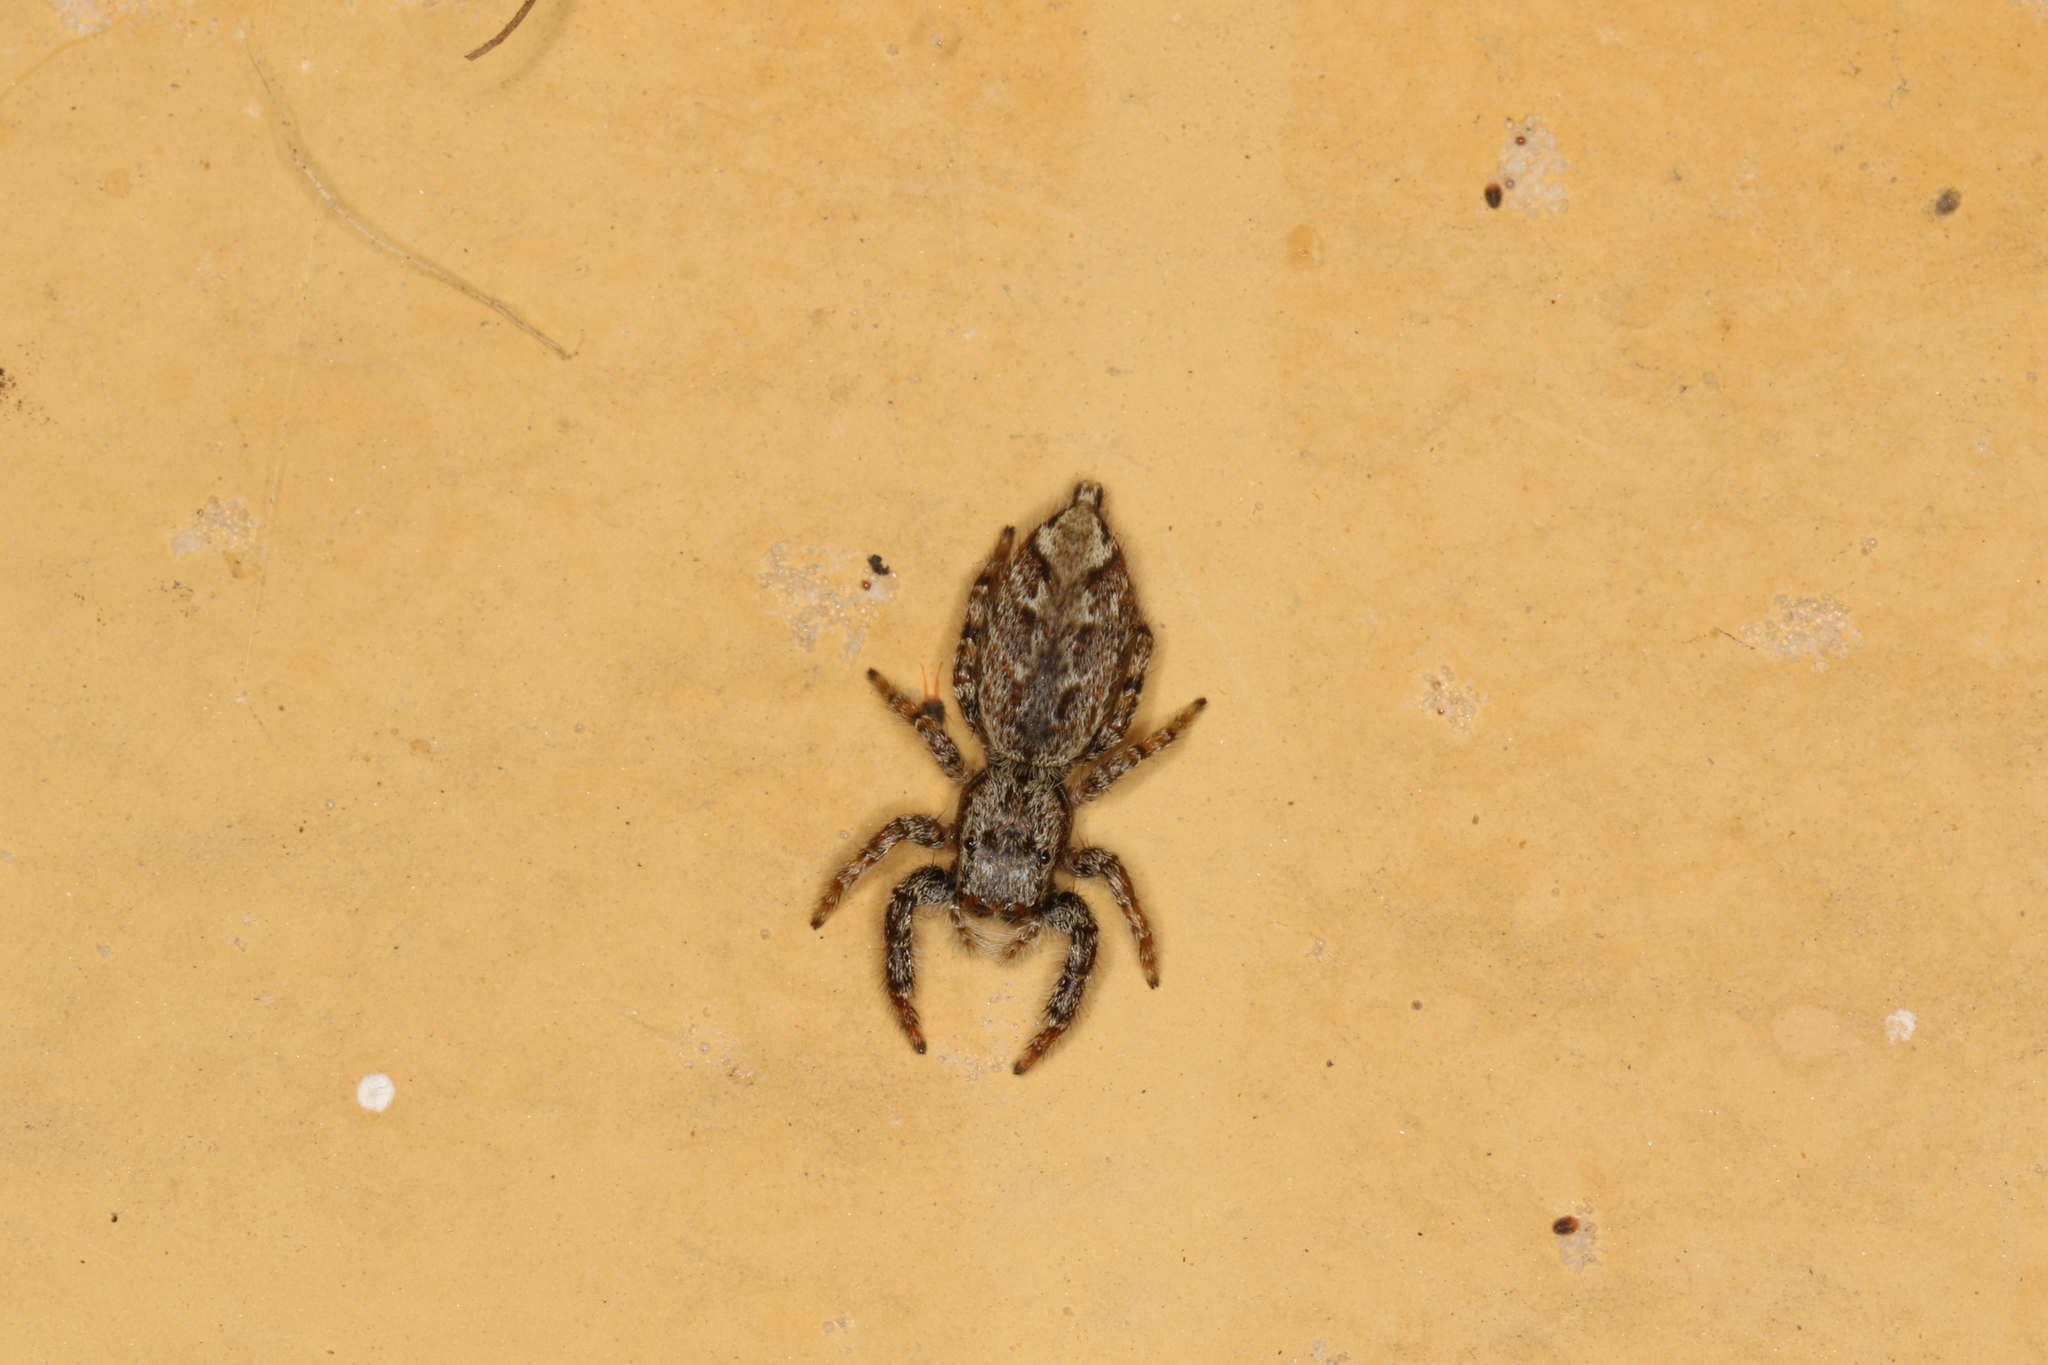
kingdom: Animalia
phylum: Arthropoda
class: Arachnida
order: Araneae
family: Salticidae
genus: Marpissa
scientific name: Marpissa muscosa
